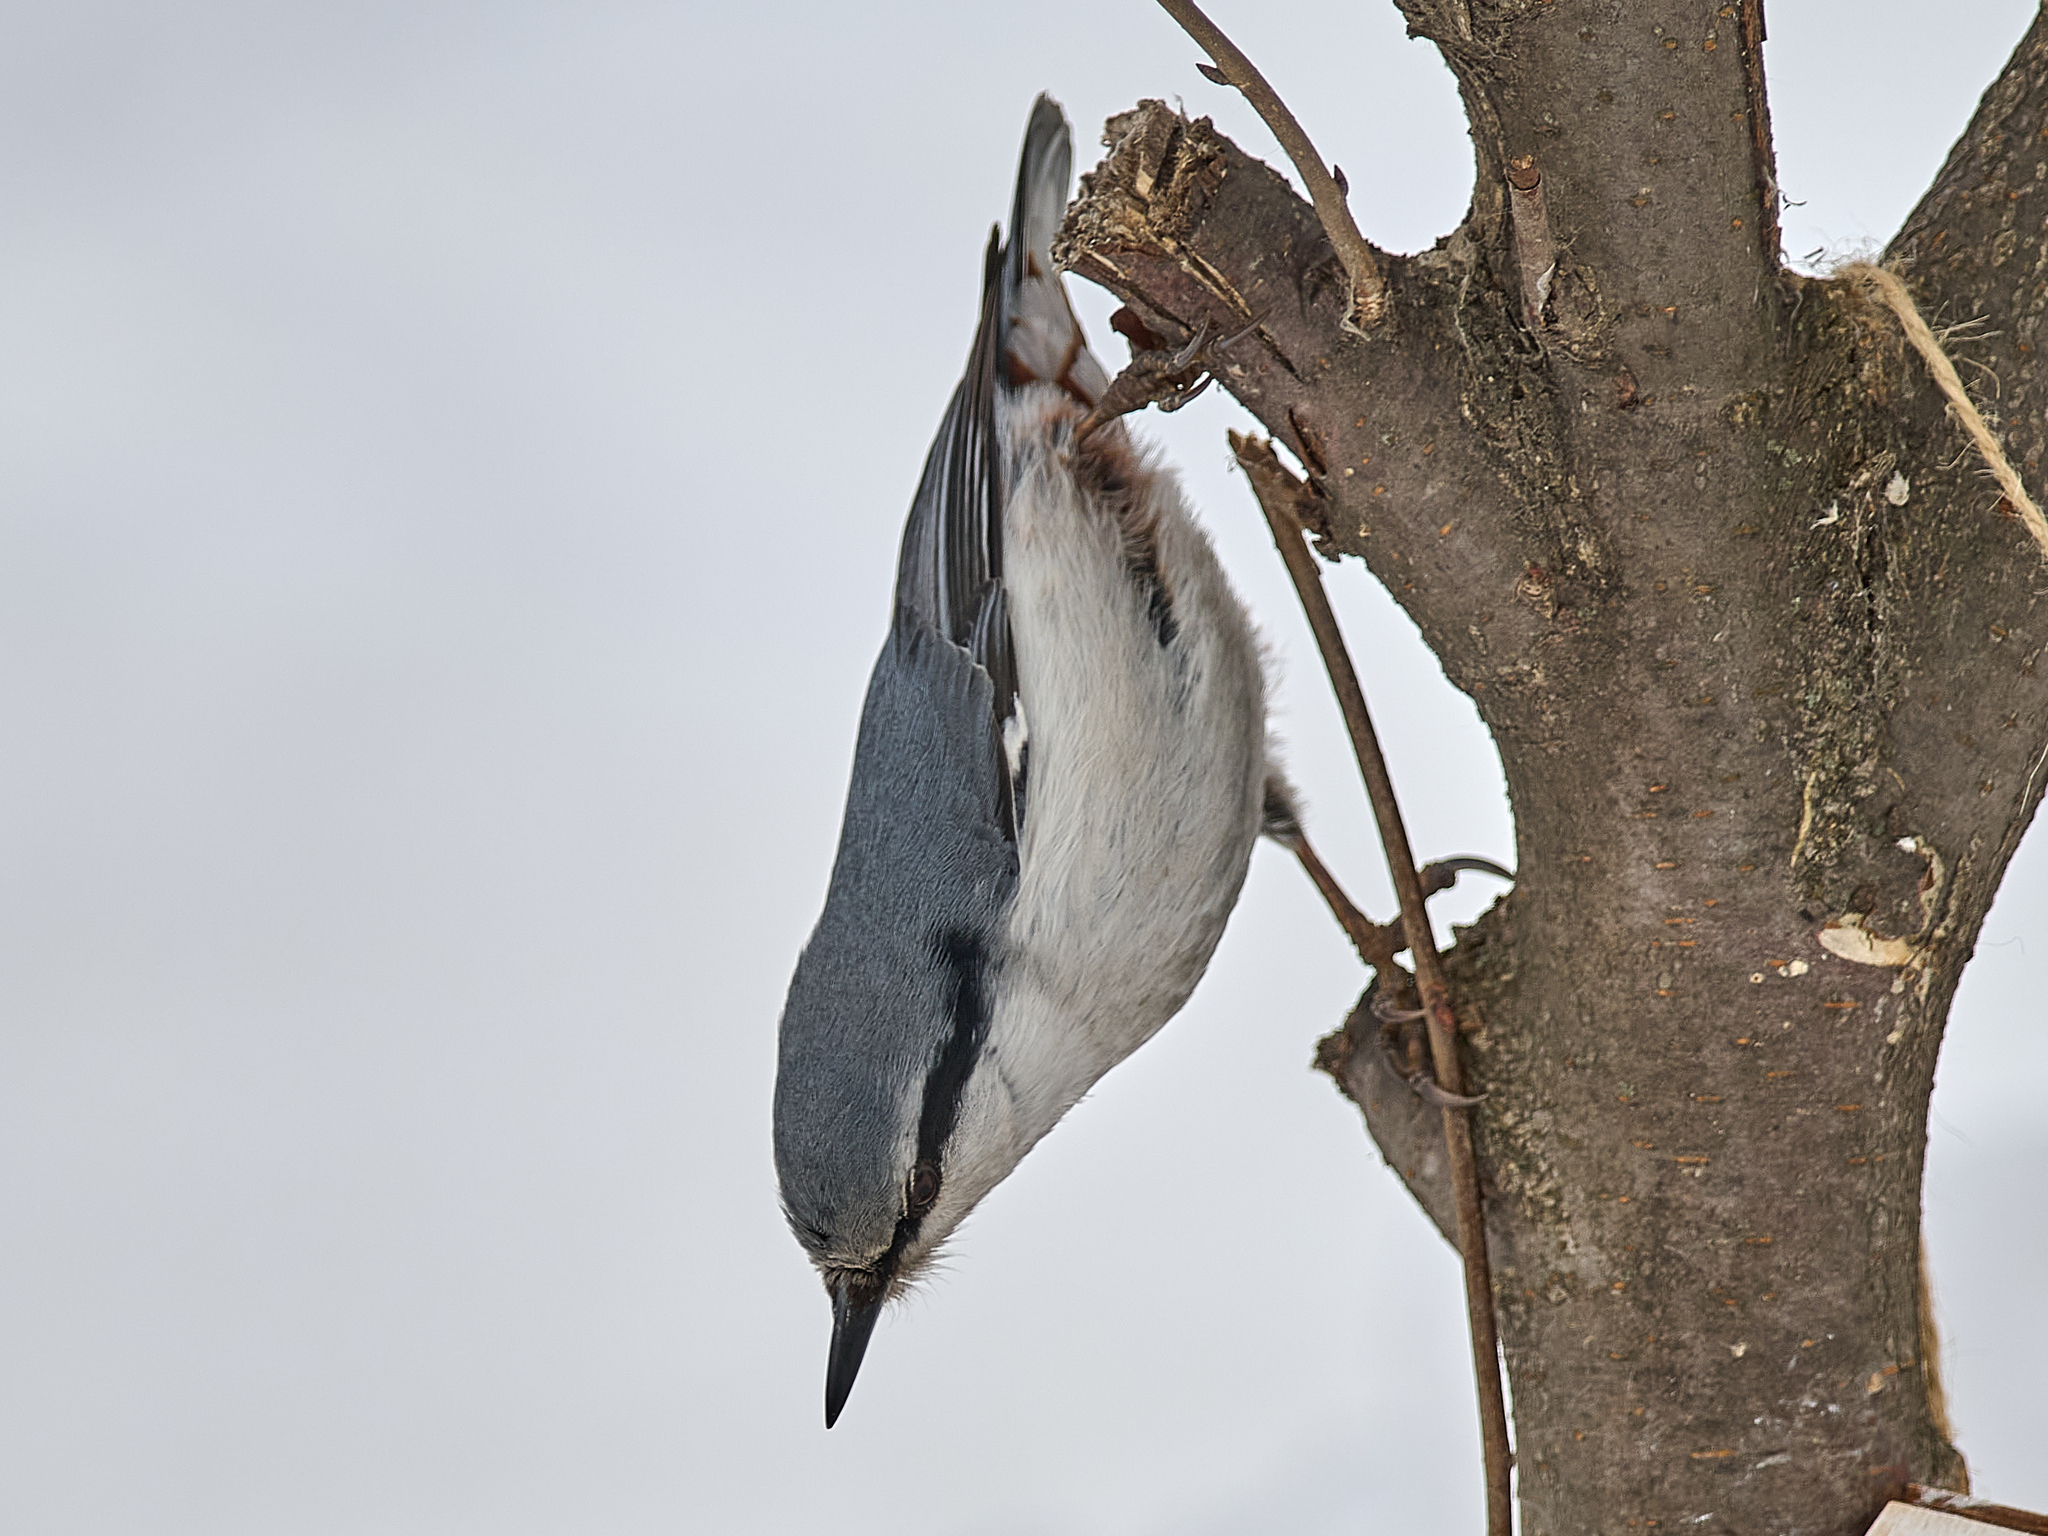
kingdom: Animalia
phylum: Chordata
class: Aves
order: Passeriformes
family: Sittidae
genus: Sitta
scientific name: Sitta europaea
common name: Eurasian nuthatch
